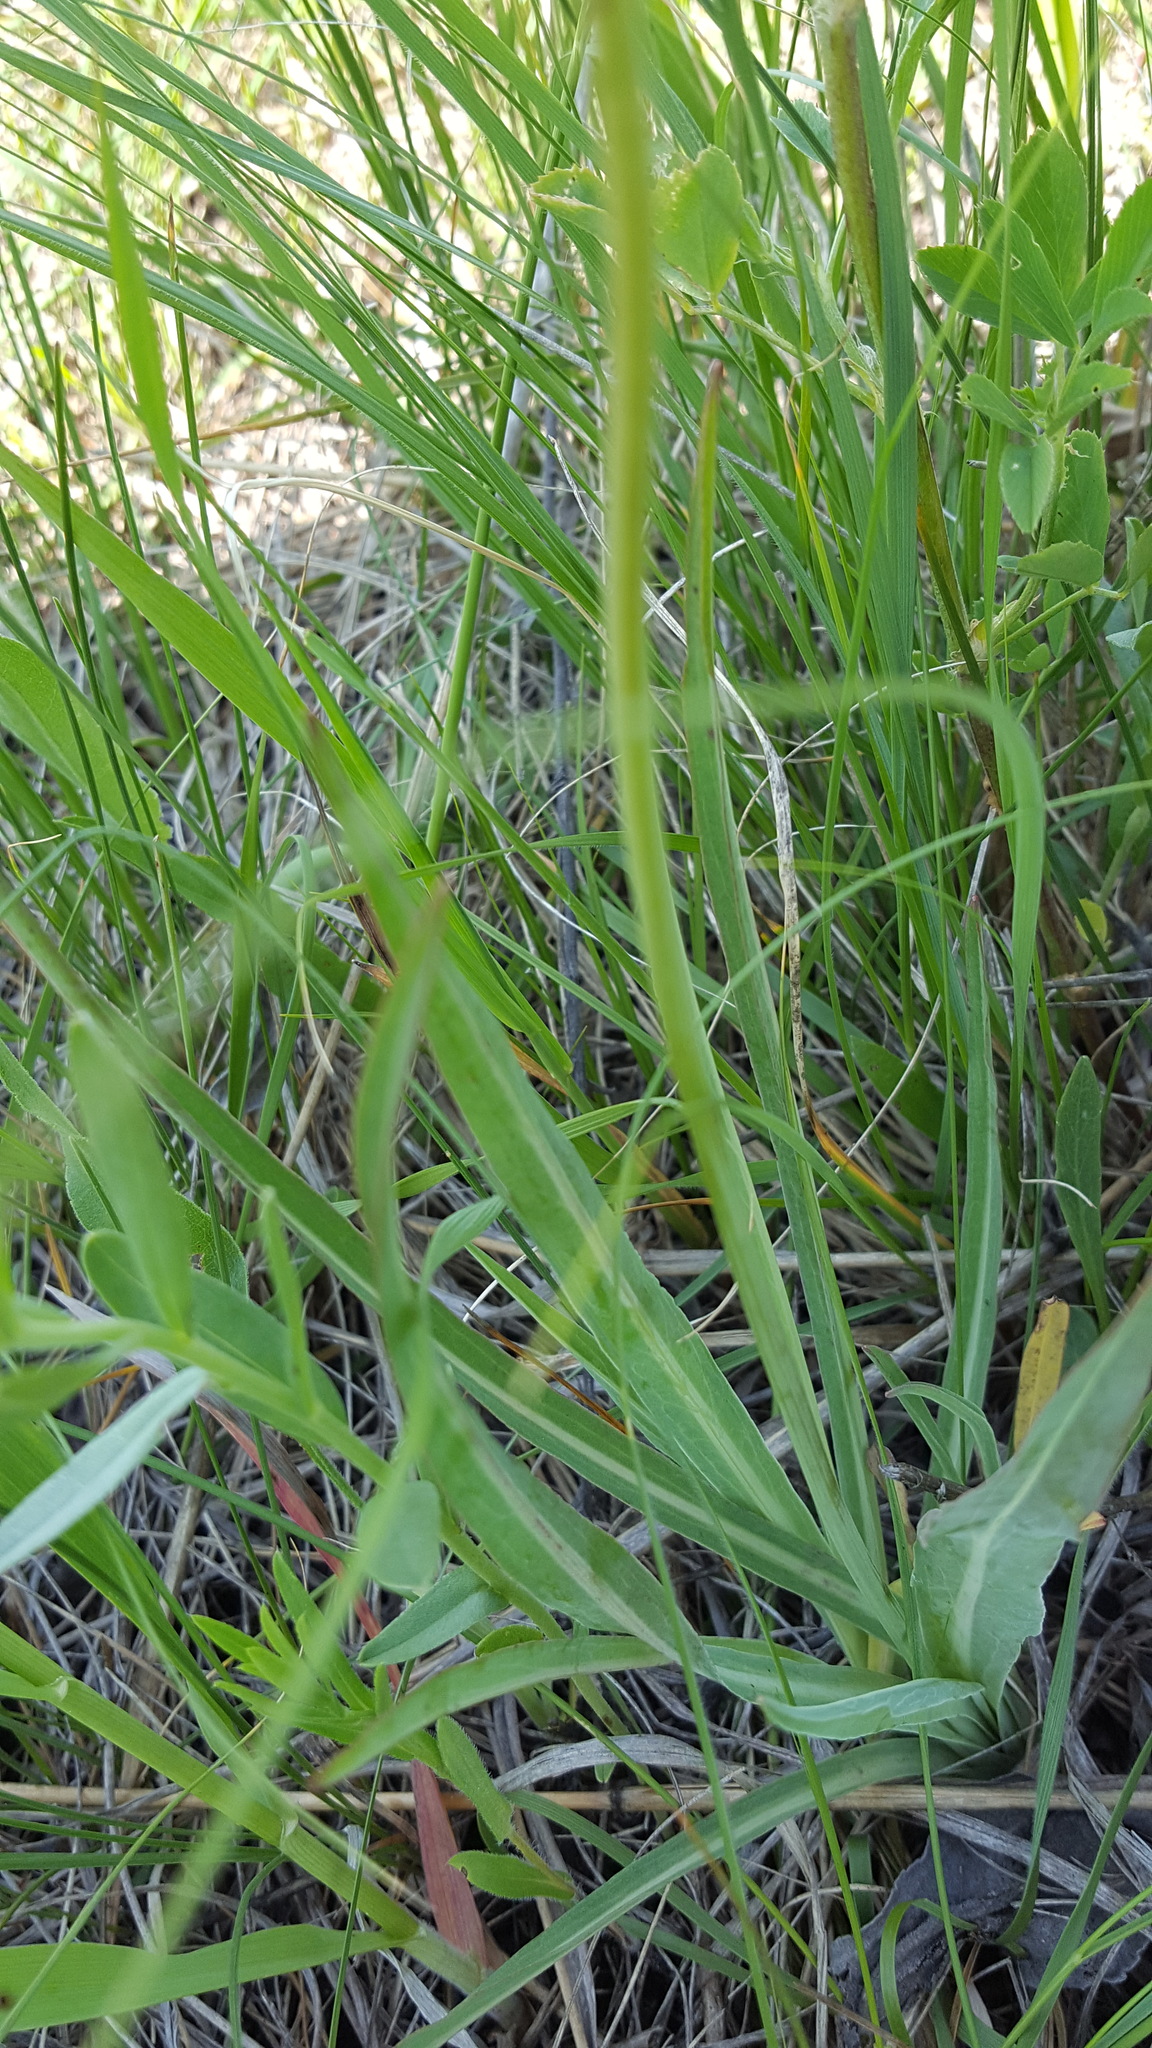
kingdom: Plantae
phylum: Tracheophyta
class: Magnoliopsida
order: Asterales
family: Asteraceae
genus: Agoseris
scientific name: Agoseris glauca
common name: Prairie agoseris
